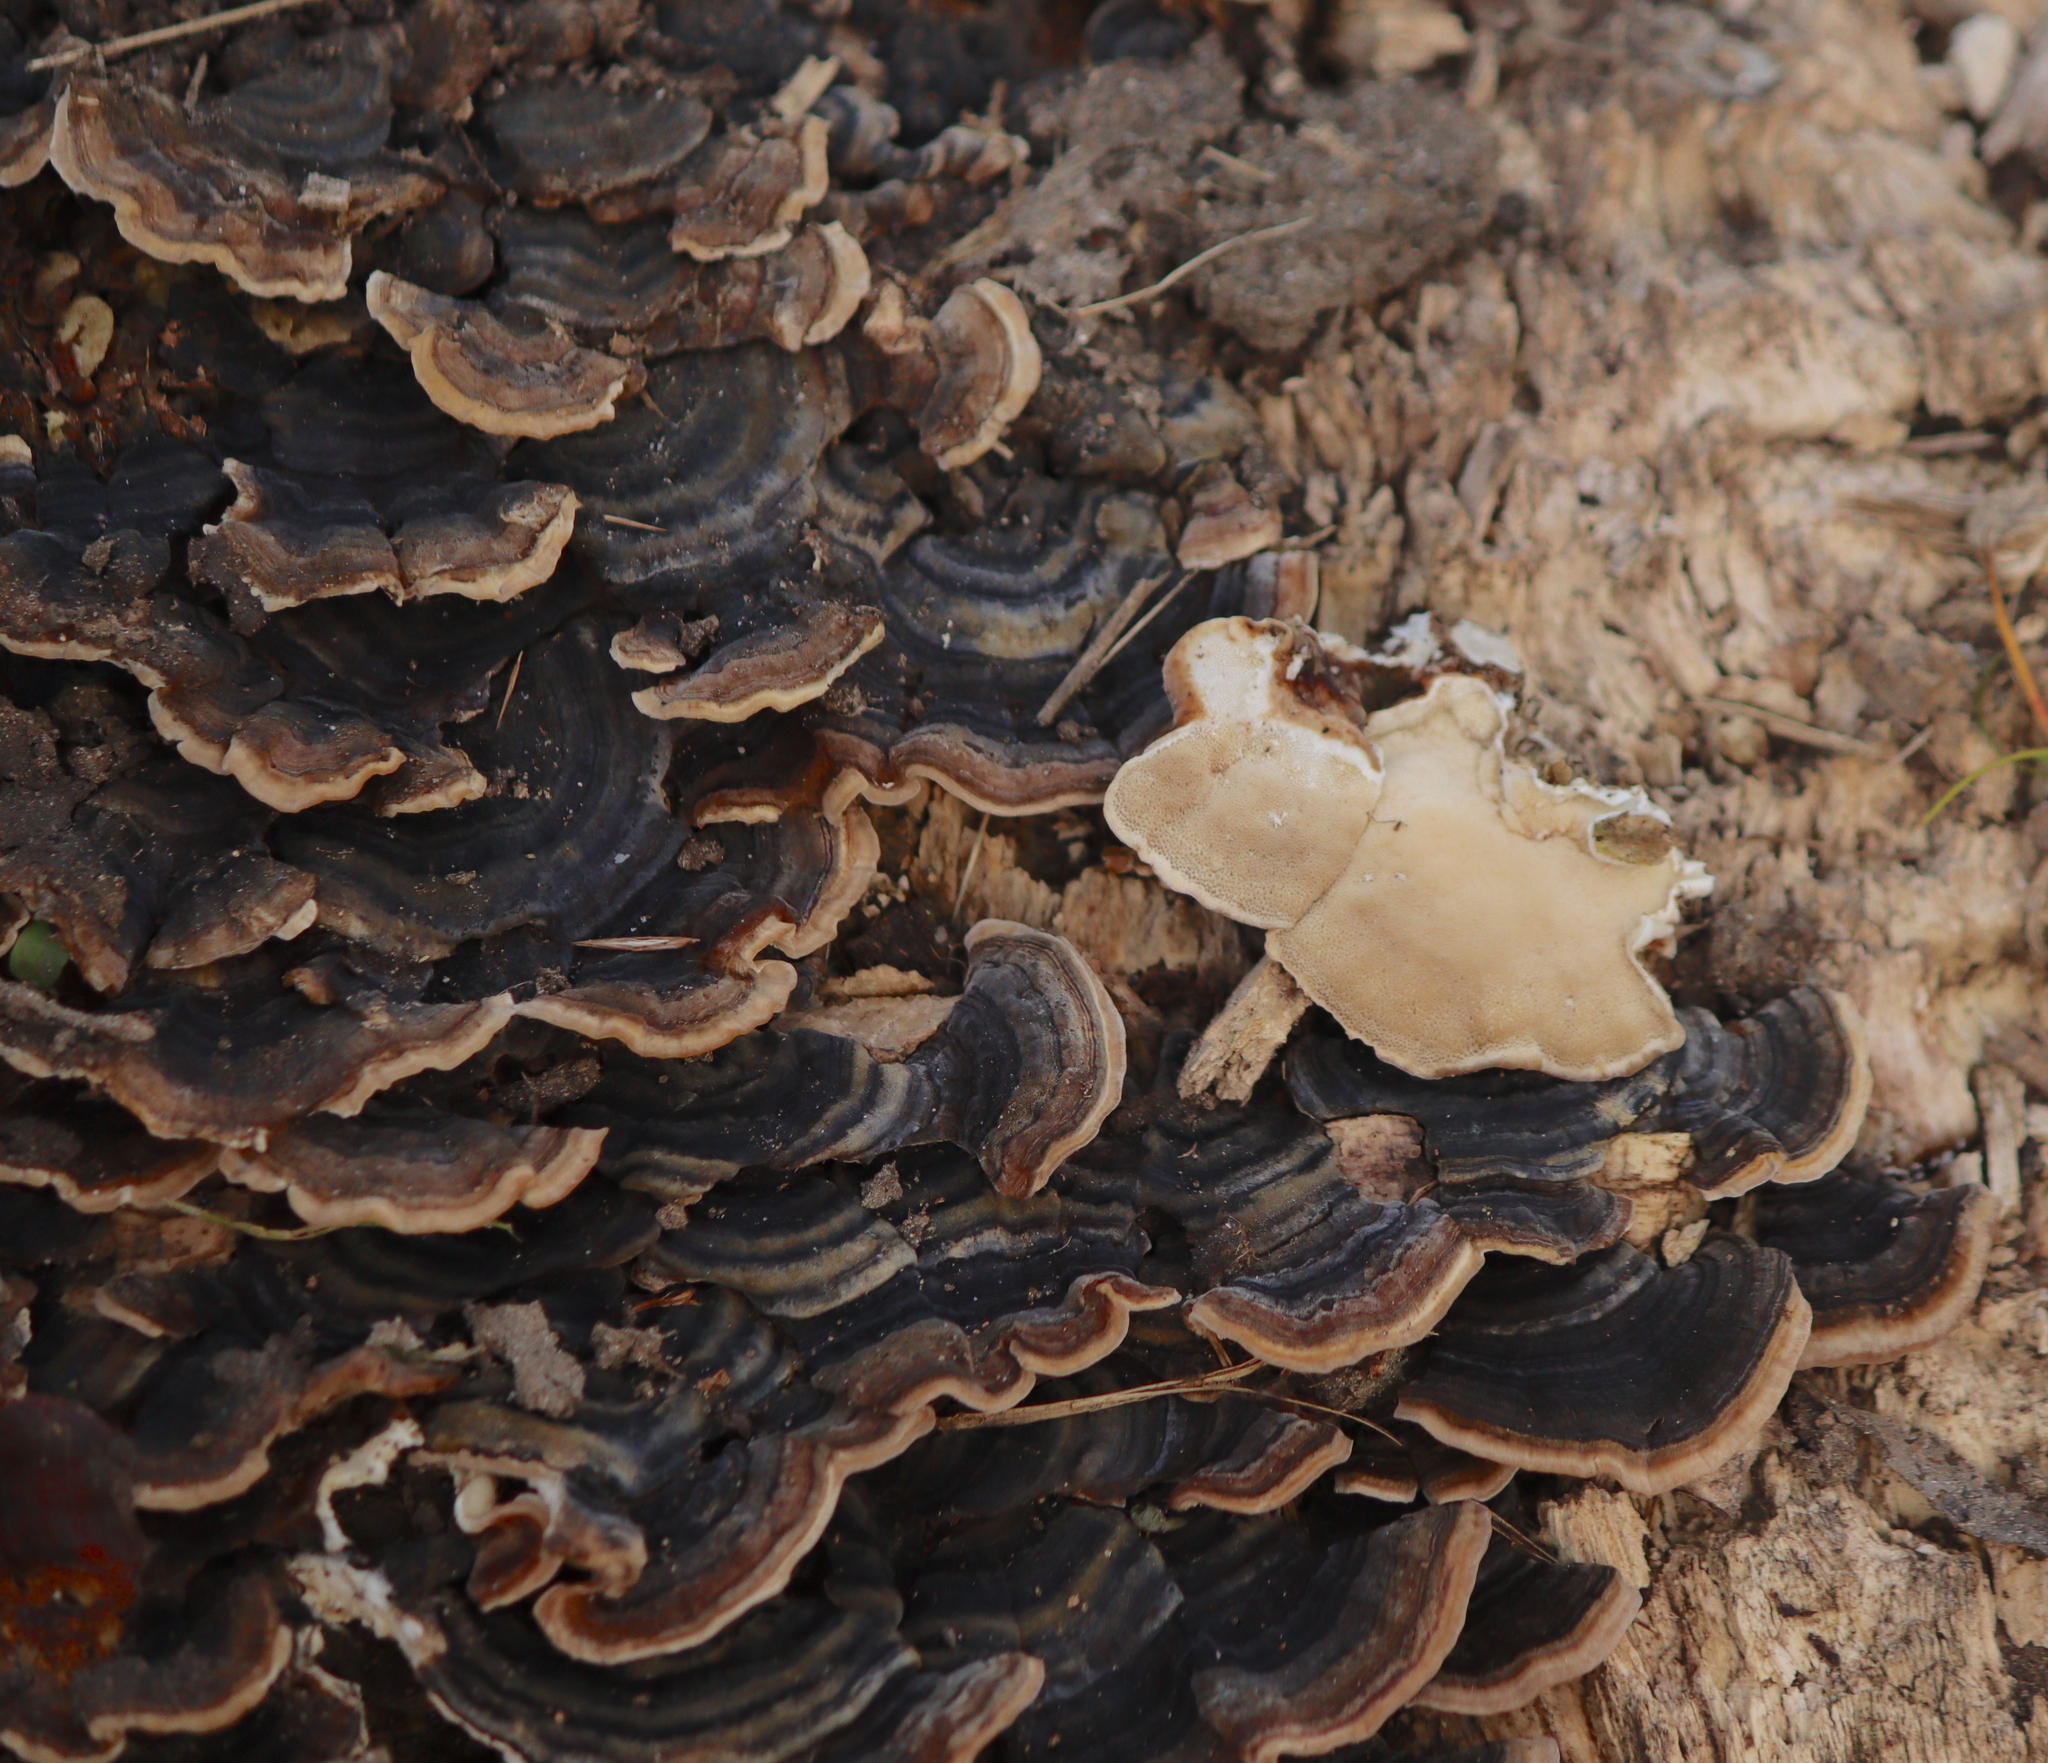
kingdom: Fungi
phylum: Basidiomycota
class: Agaricomycetes
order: Polyporales
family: Polyporaceae
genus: Trametes
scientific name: Trametes versicolor
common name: Turkeytail
